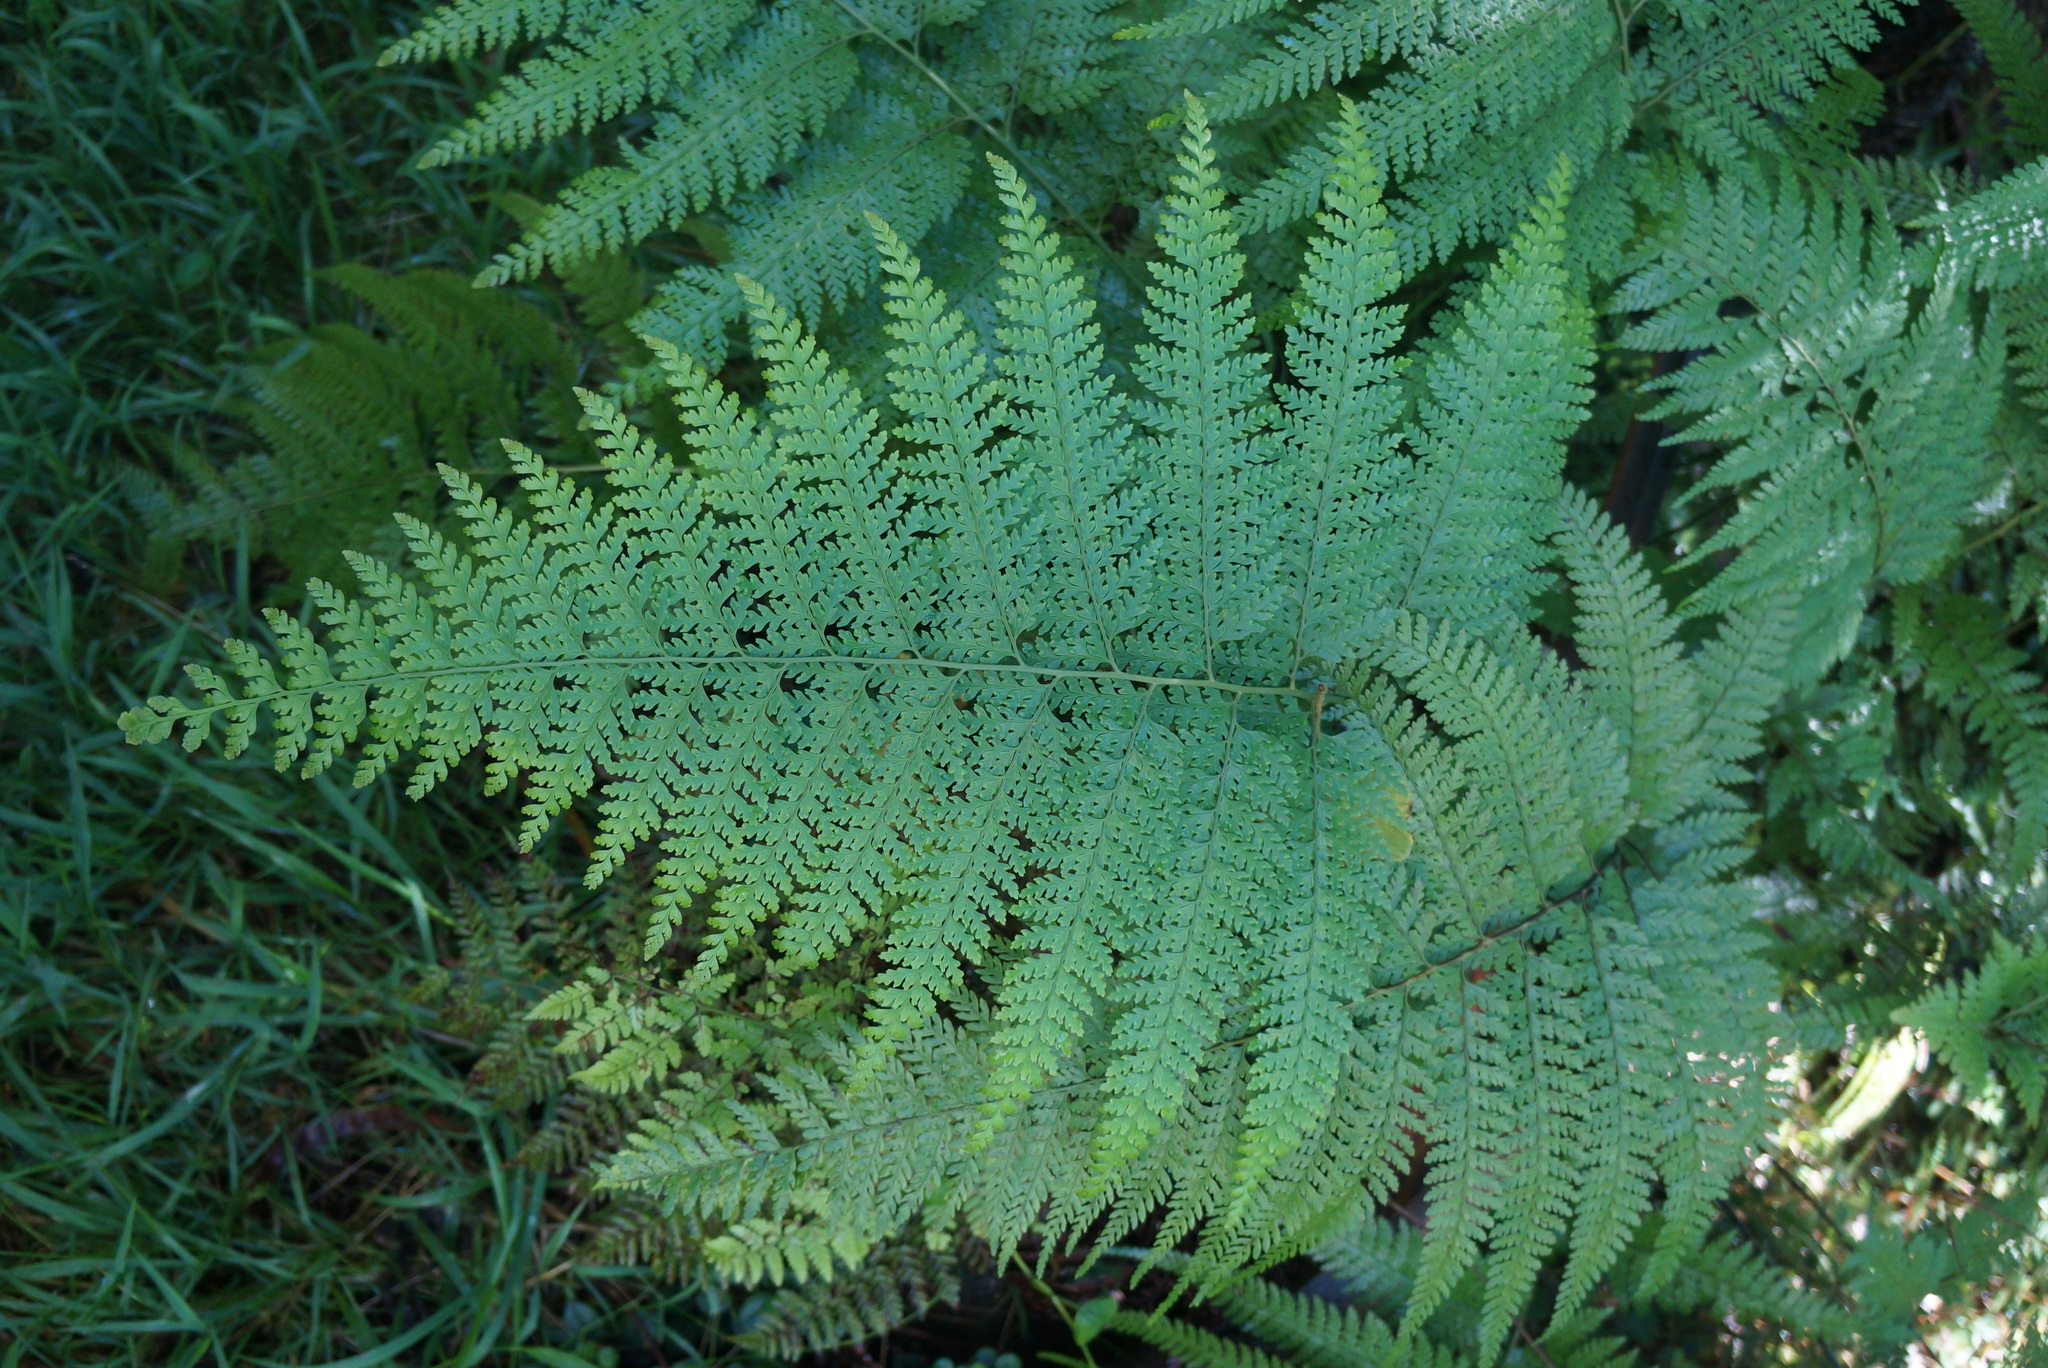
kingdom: Plantae
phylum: Tracheophyta
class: Polypodiopsida
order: Polypodiales
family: Dennstaedtiaceae
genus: Microlepia
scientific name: Microlepia setosa
